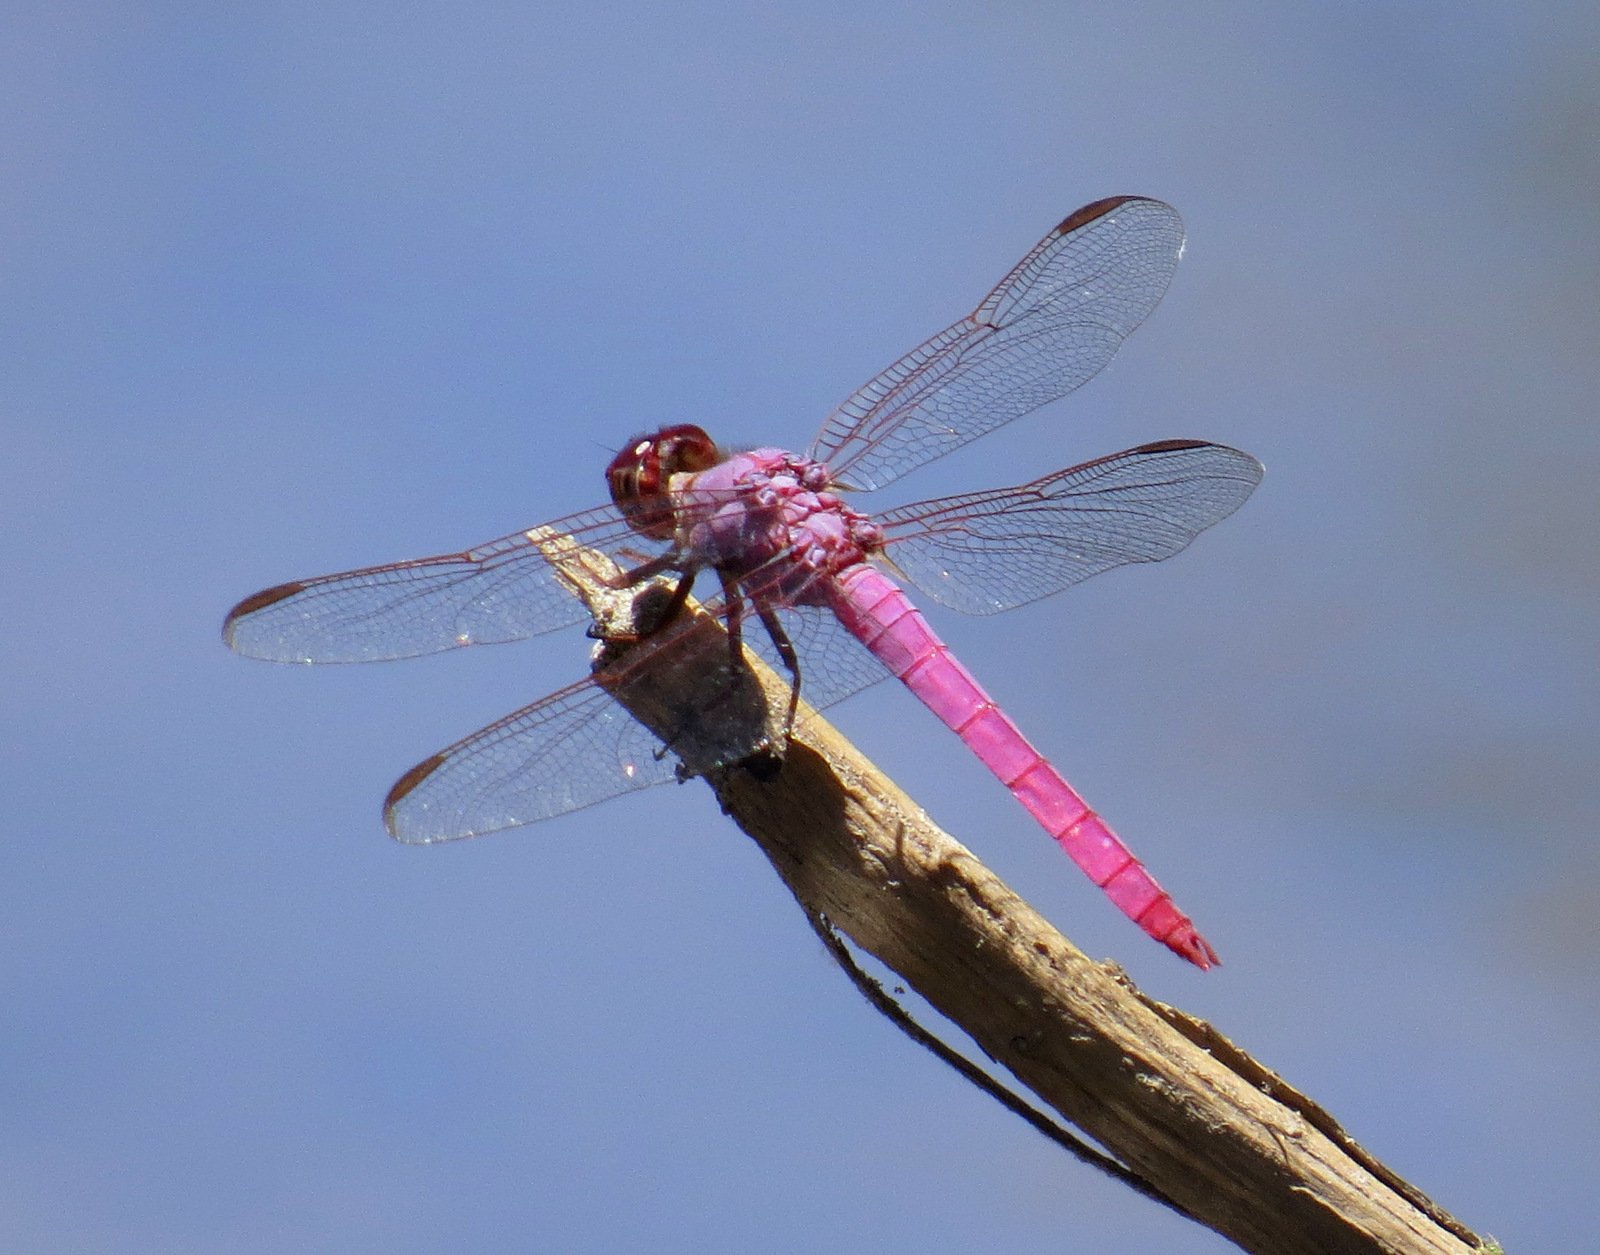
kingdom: Animalia
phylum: Arthropoda
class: Insecta
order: Odonata
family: Libellulidae
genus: Orthemis
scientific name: Orthemis ferruginea
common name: Roseate skimmer
